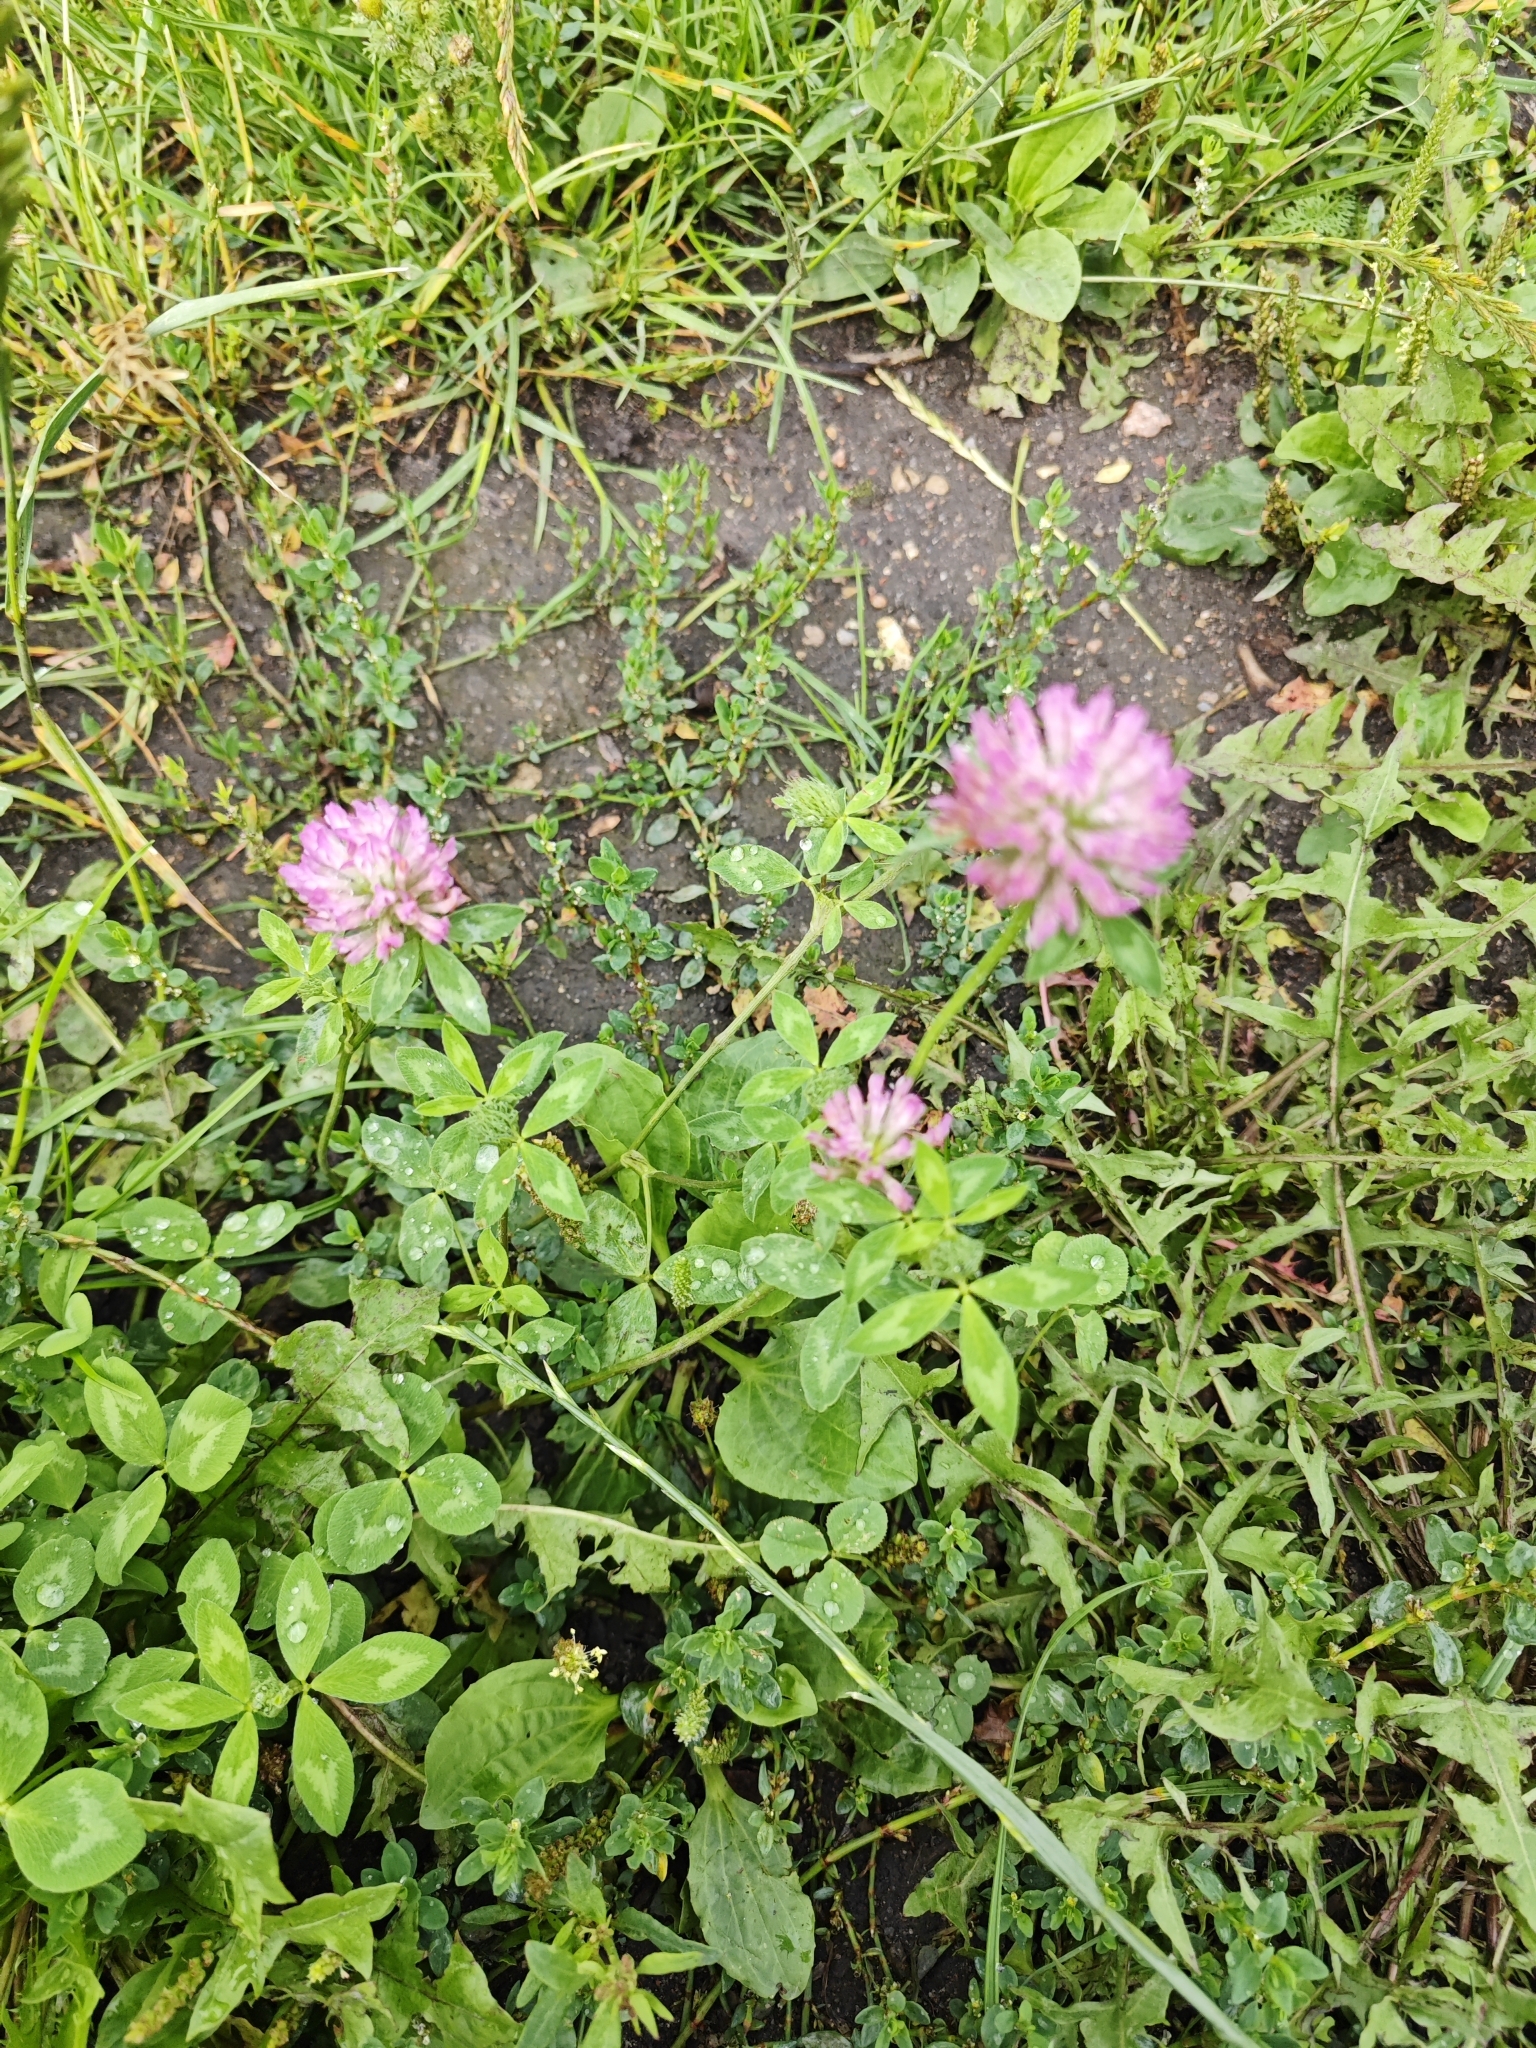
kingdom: Plantae
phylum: Tracheophyta
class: Magnoliopsida
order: Fabales
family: Fabaceae
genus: Trifolium
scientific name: Trifolium pratense
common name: Red clover
